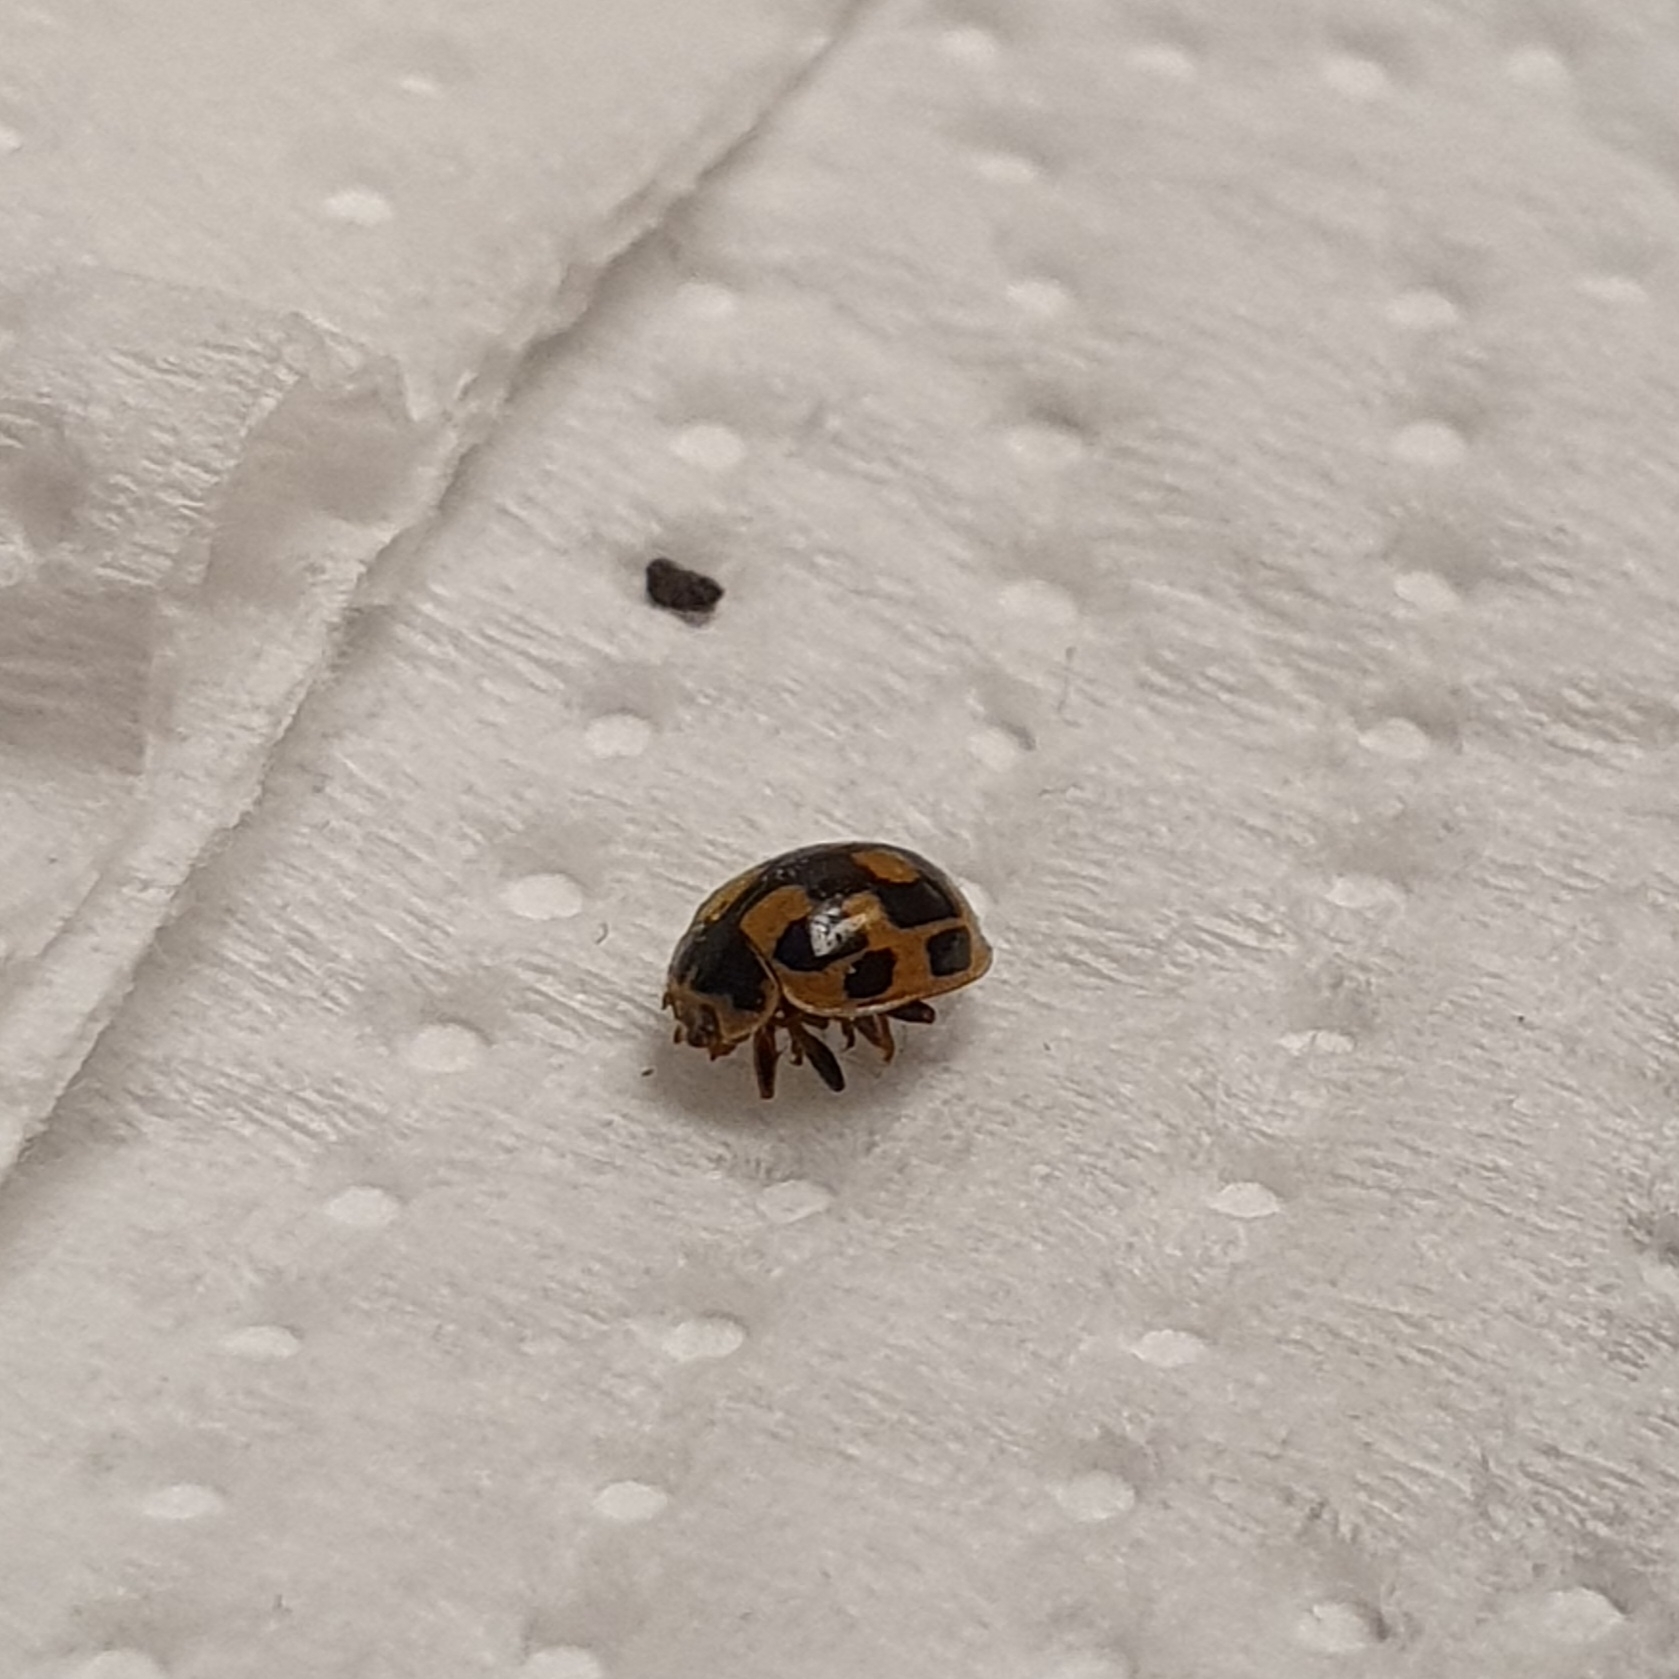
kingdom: Animalia
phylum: Arthropoda
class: Insecta
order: Coleoptera
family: Coccinellidae
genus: Propylaea
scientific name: Propylaea quatuordecimpunctata
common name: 14-spotted ladybird beetle
